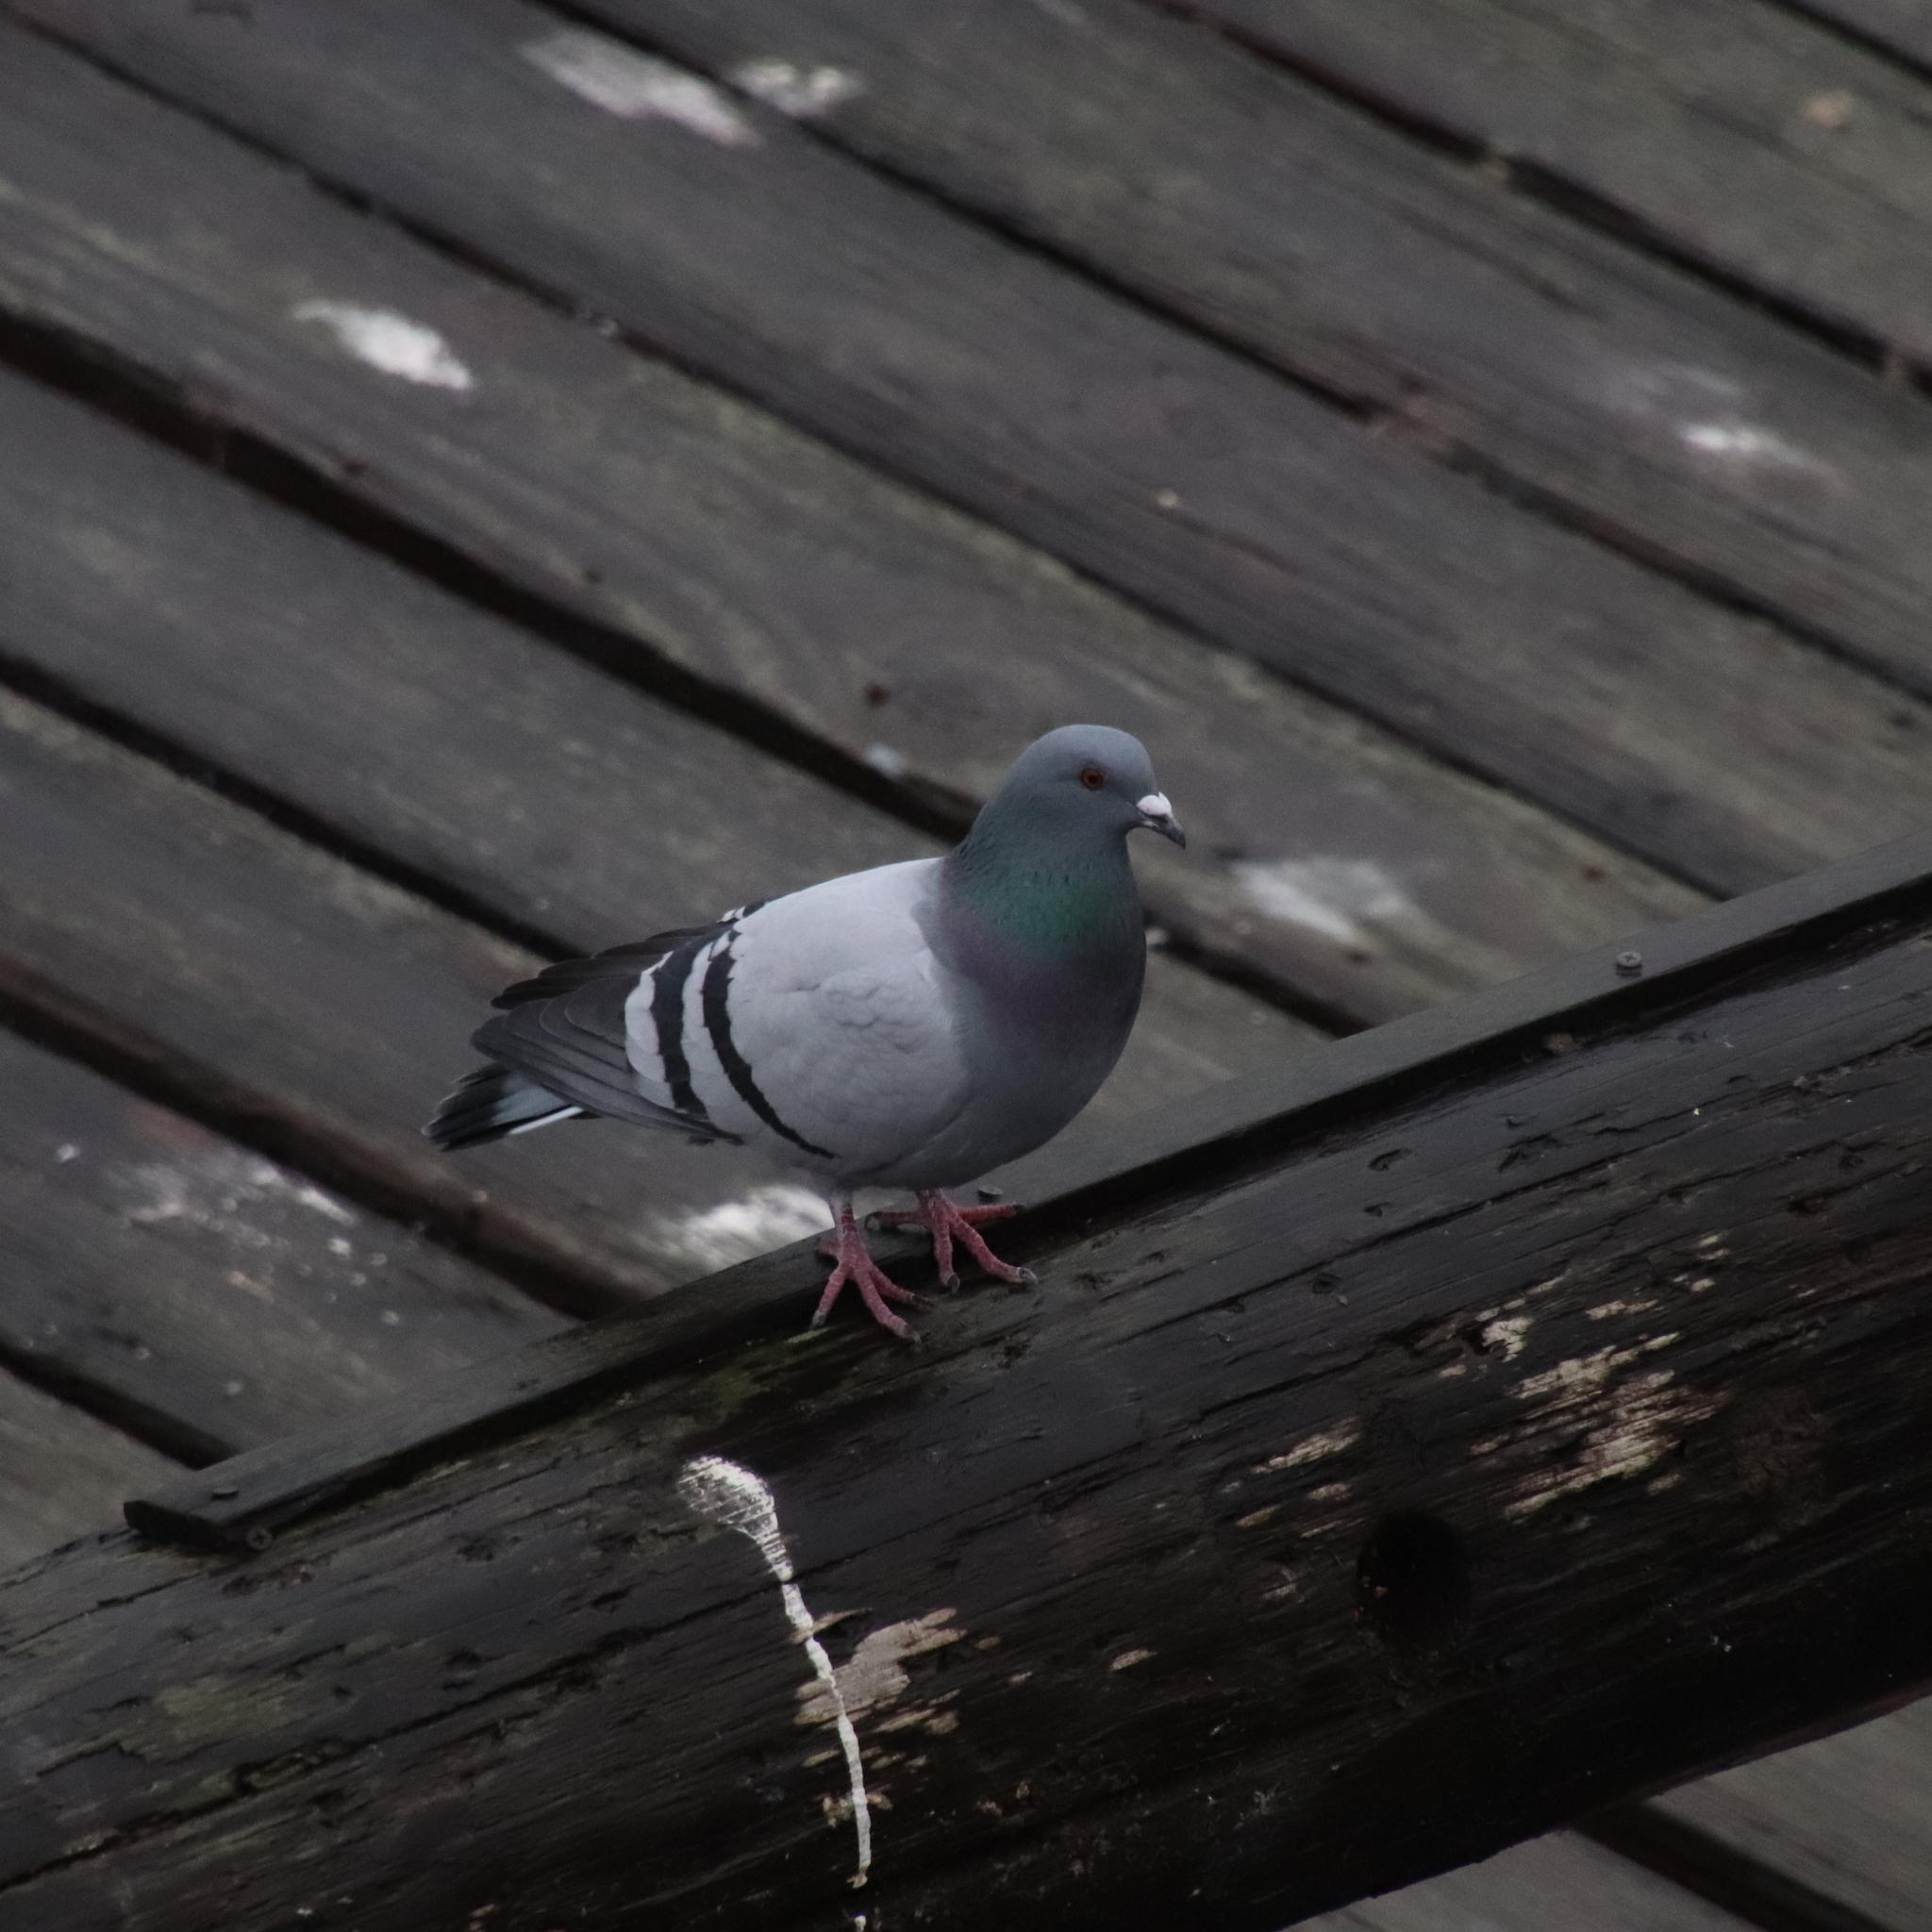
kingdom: Animalia
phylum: Chordata
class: Aves
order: Columbiformes
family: Columbidae
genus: Columba
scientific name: Columba livia
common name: Rock pigeon
